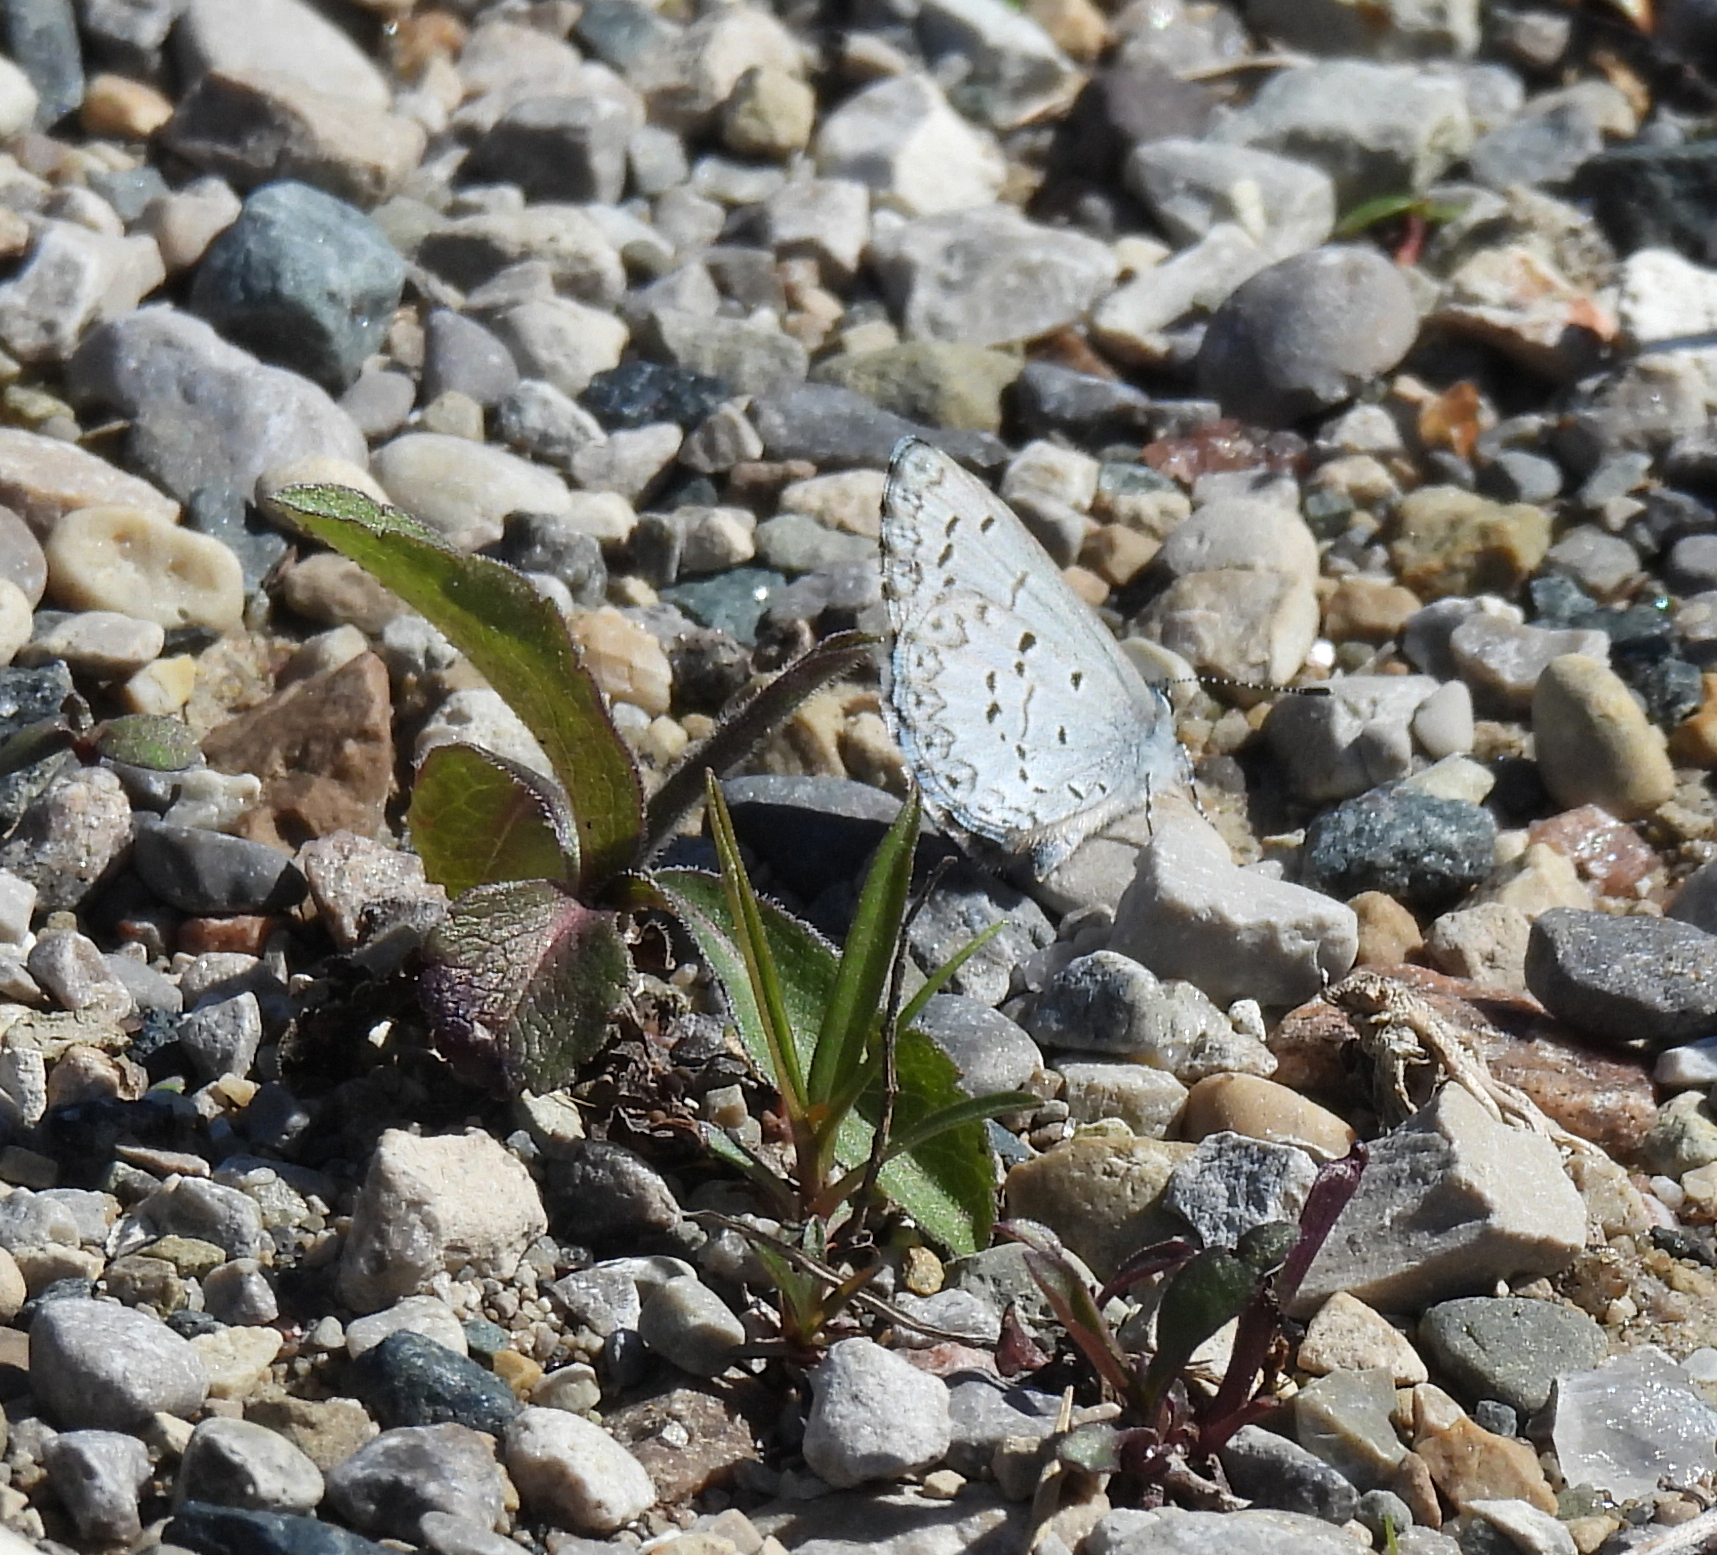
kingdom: Animalia
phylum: Arthropoda
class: Insecta
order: Lepidoptera
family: Lycaenidae
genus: Celastrina
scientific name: Celastrina lucia
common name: Lucia azure
